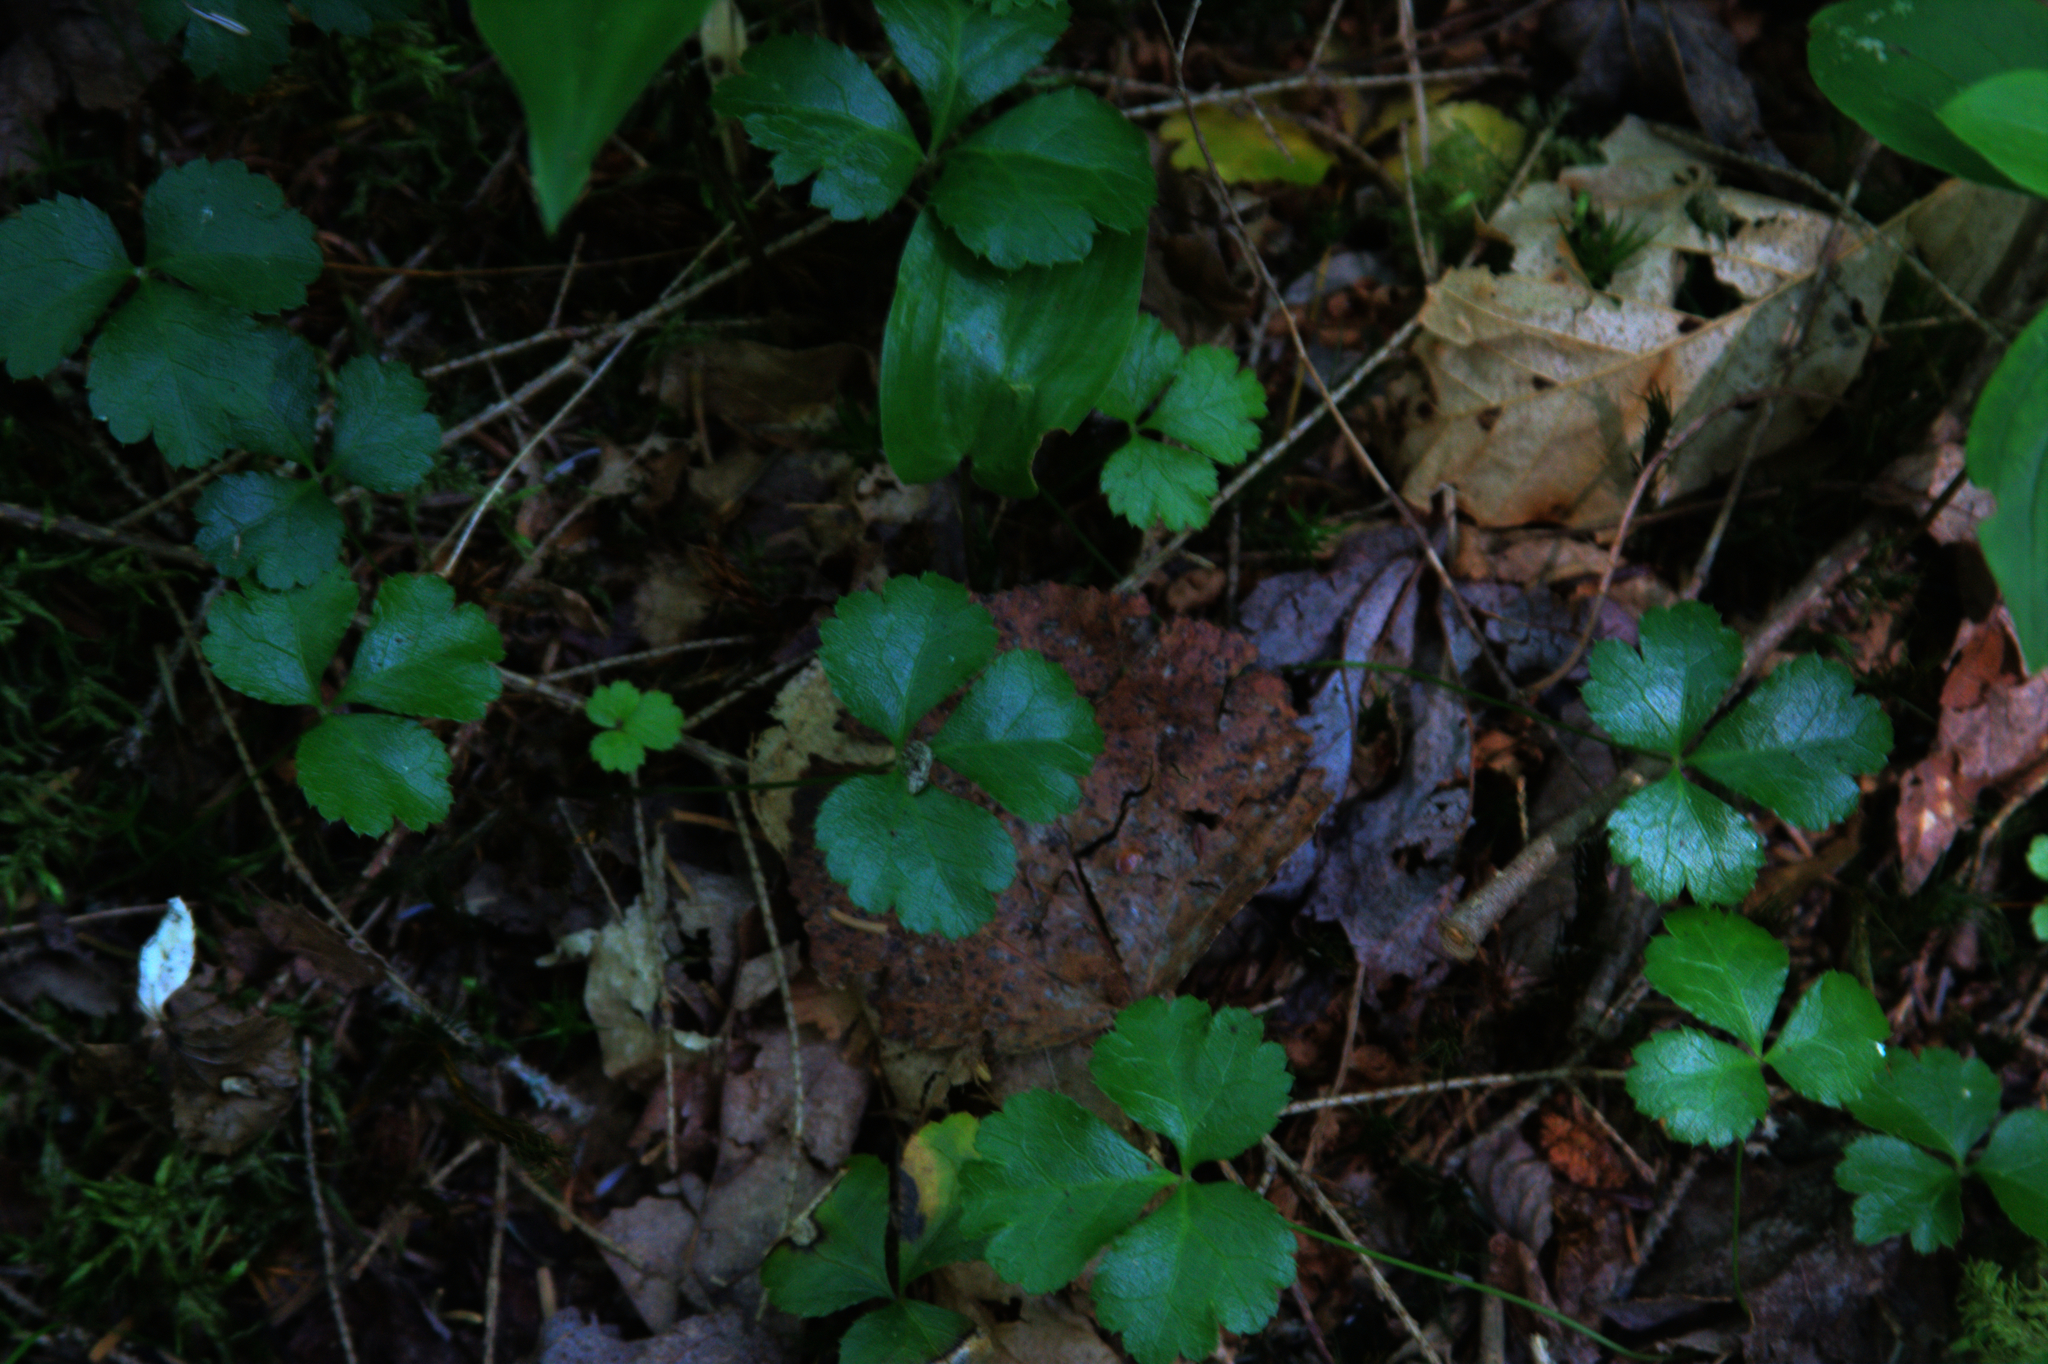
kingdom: Plantae
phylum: Tracheophyta
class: Magnoliopsida
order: Ranunculales
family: Ranunculaceae
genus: Coptis
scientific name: Coptis trifolia
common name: Canker-root
